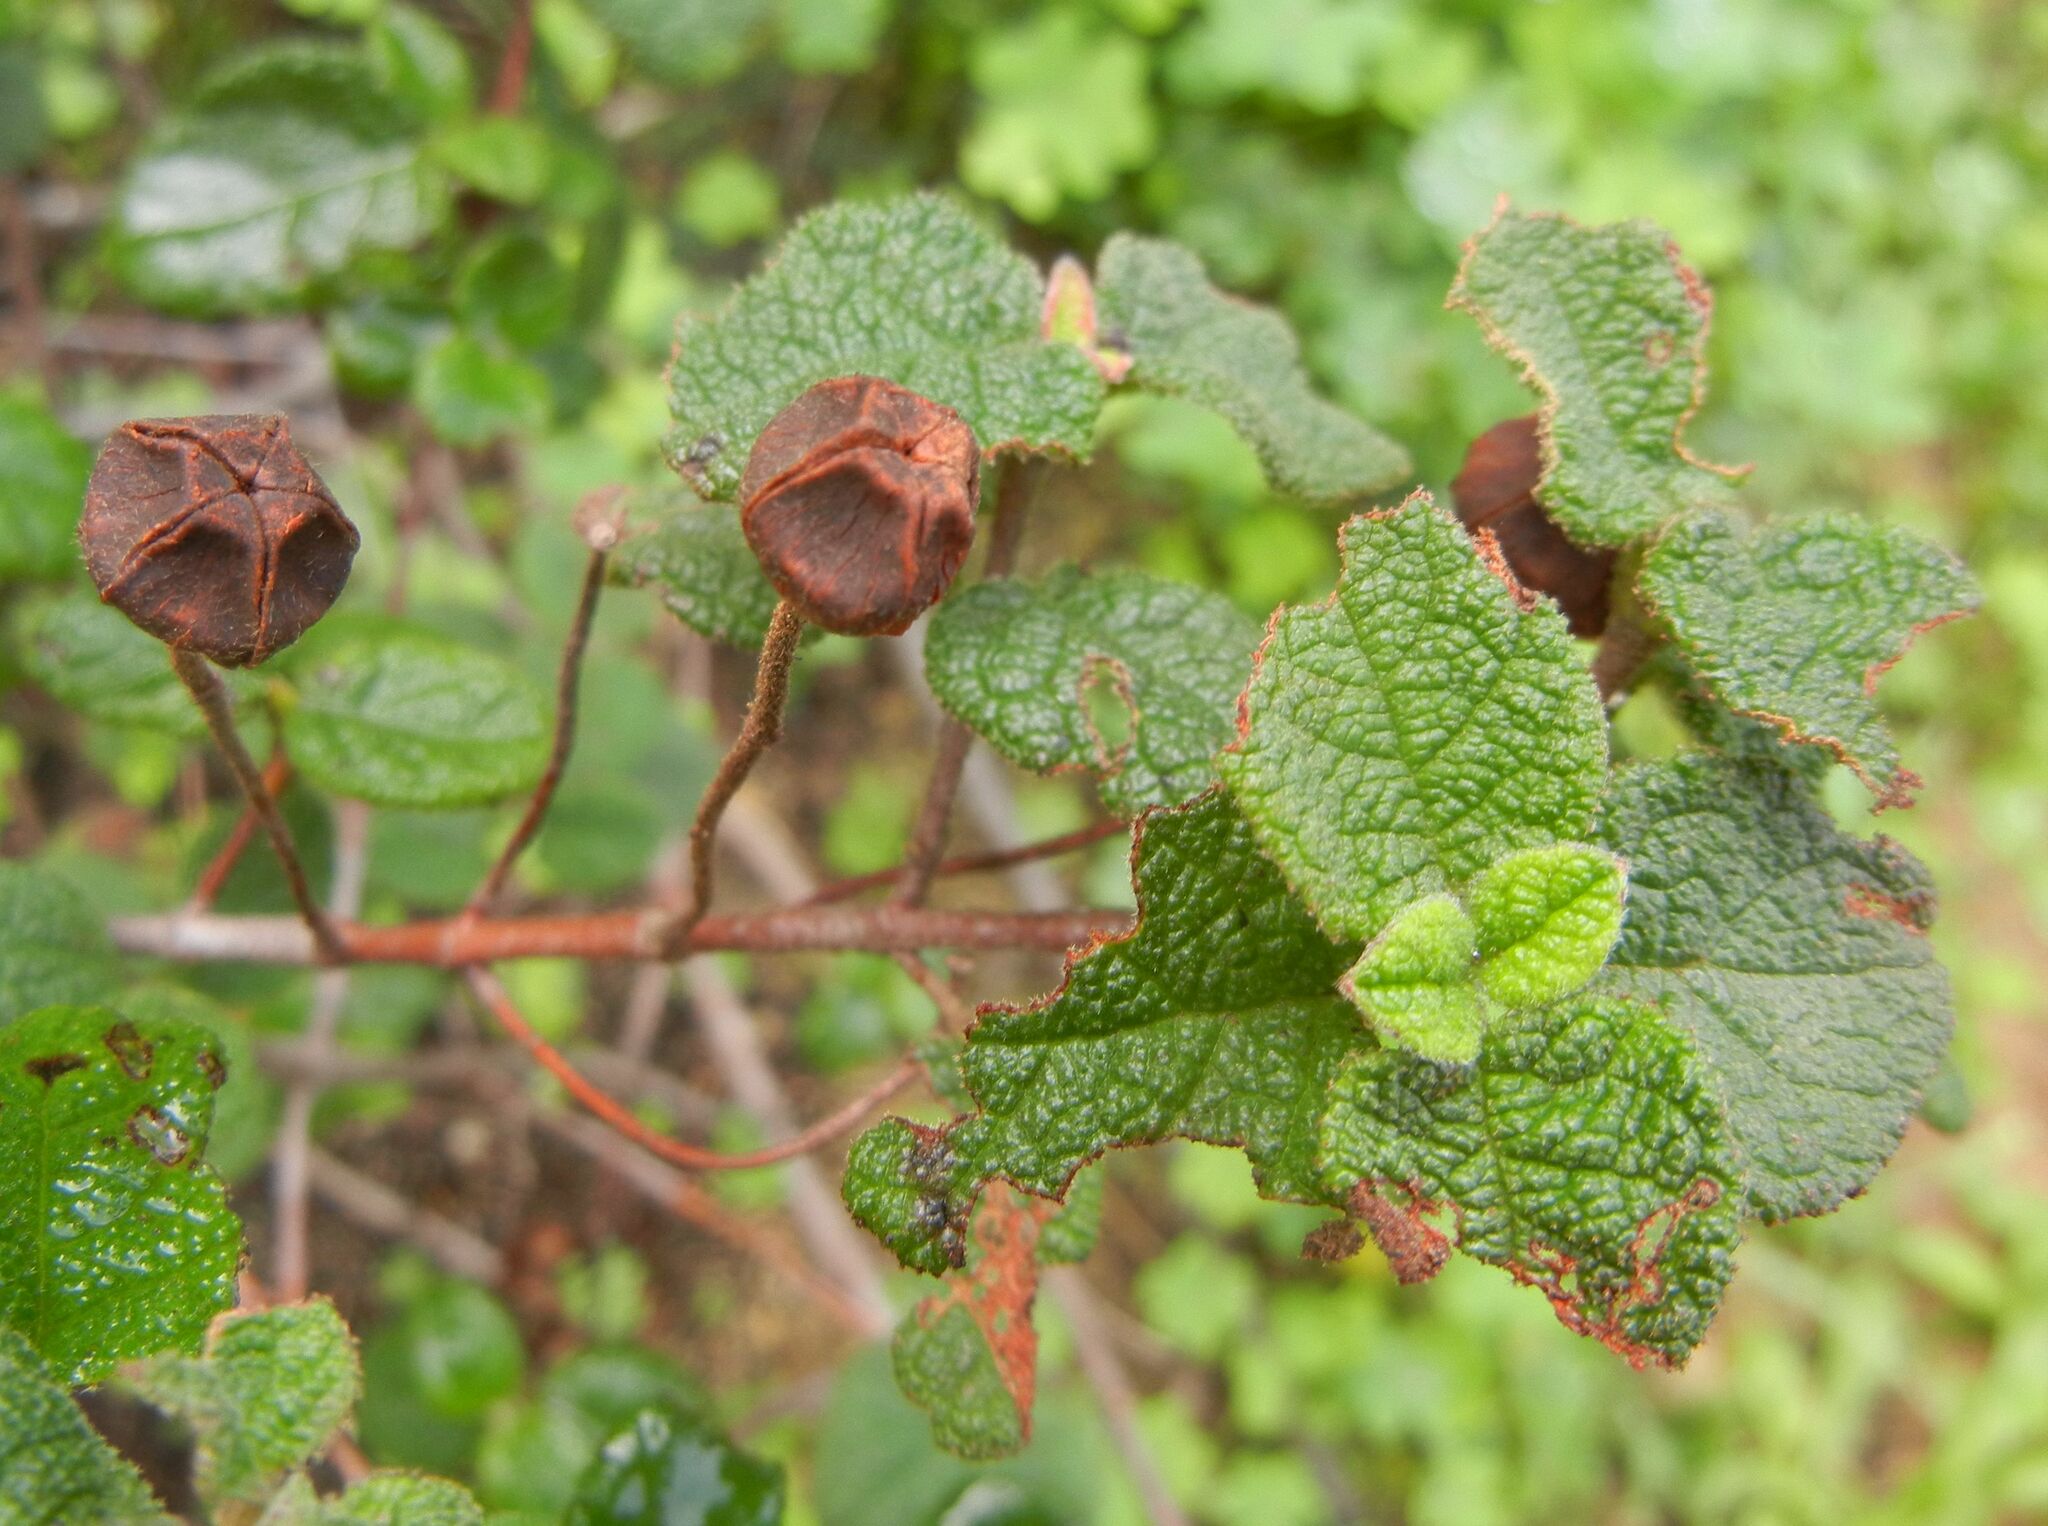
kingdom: Plantae
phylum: Tracheophyta
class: Magnoliopsida
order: Malvales
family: Cistaceae
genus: Cistus
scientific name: Cistus salviifolius
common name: Salvia cistus
